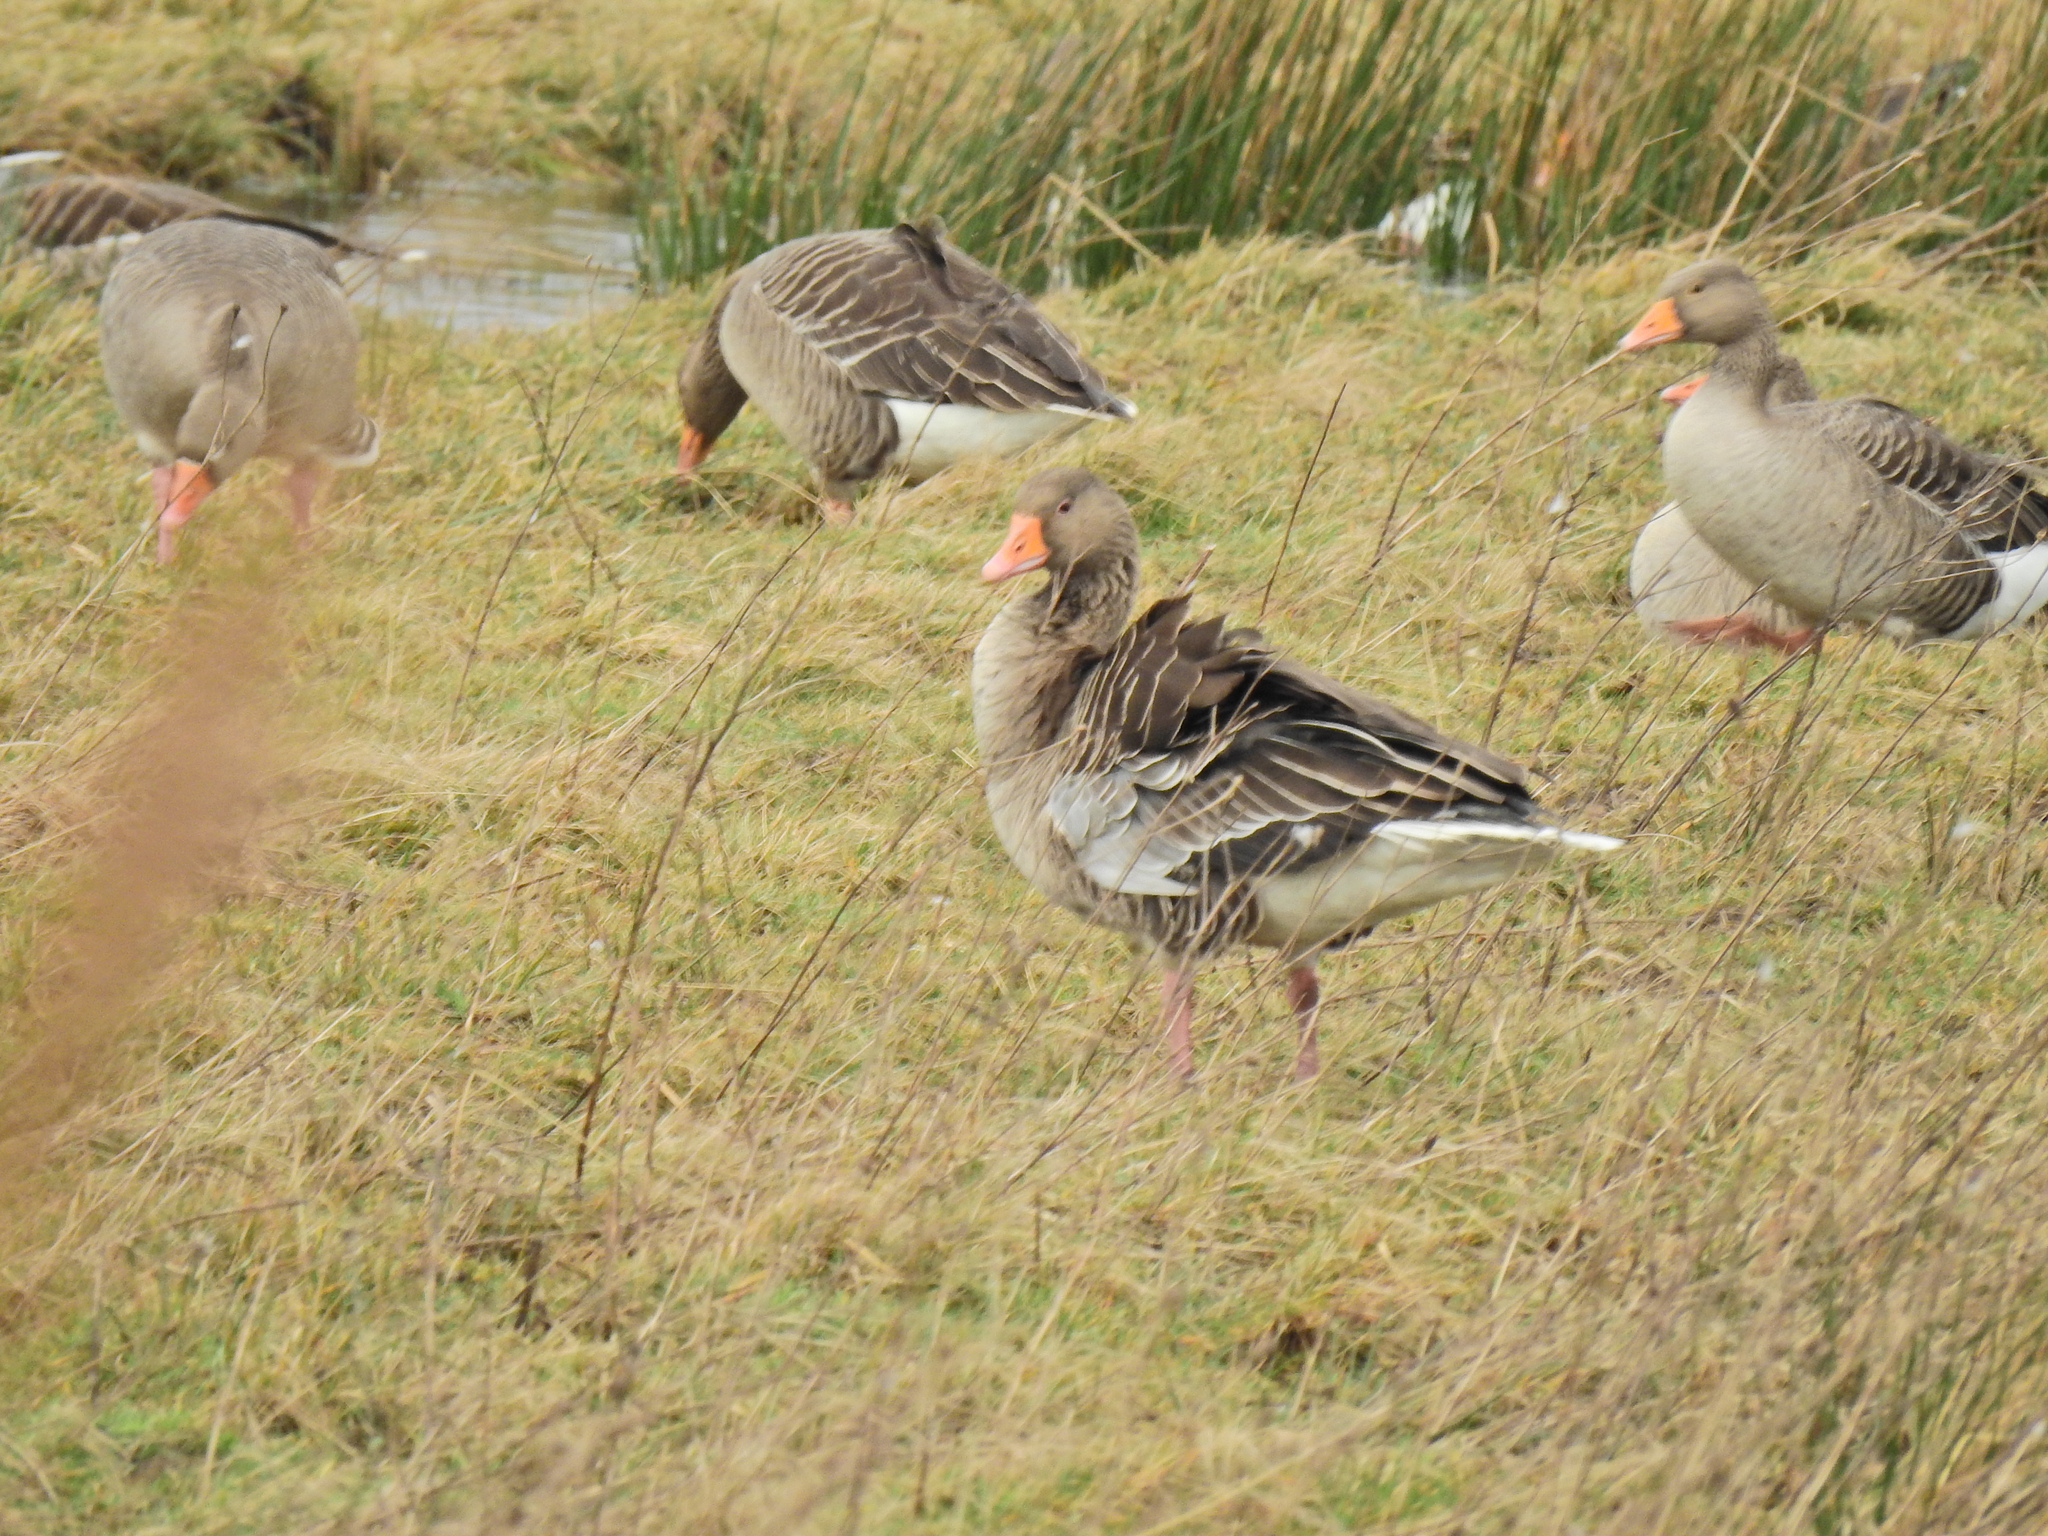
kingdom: Animalia
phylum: Chordata
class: Aves
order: Anseriformes
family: Anatidae
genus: Anser
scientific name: Anser anser
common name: Greylag goose
